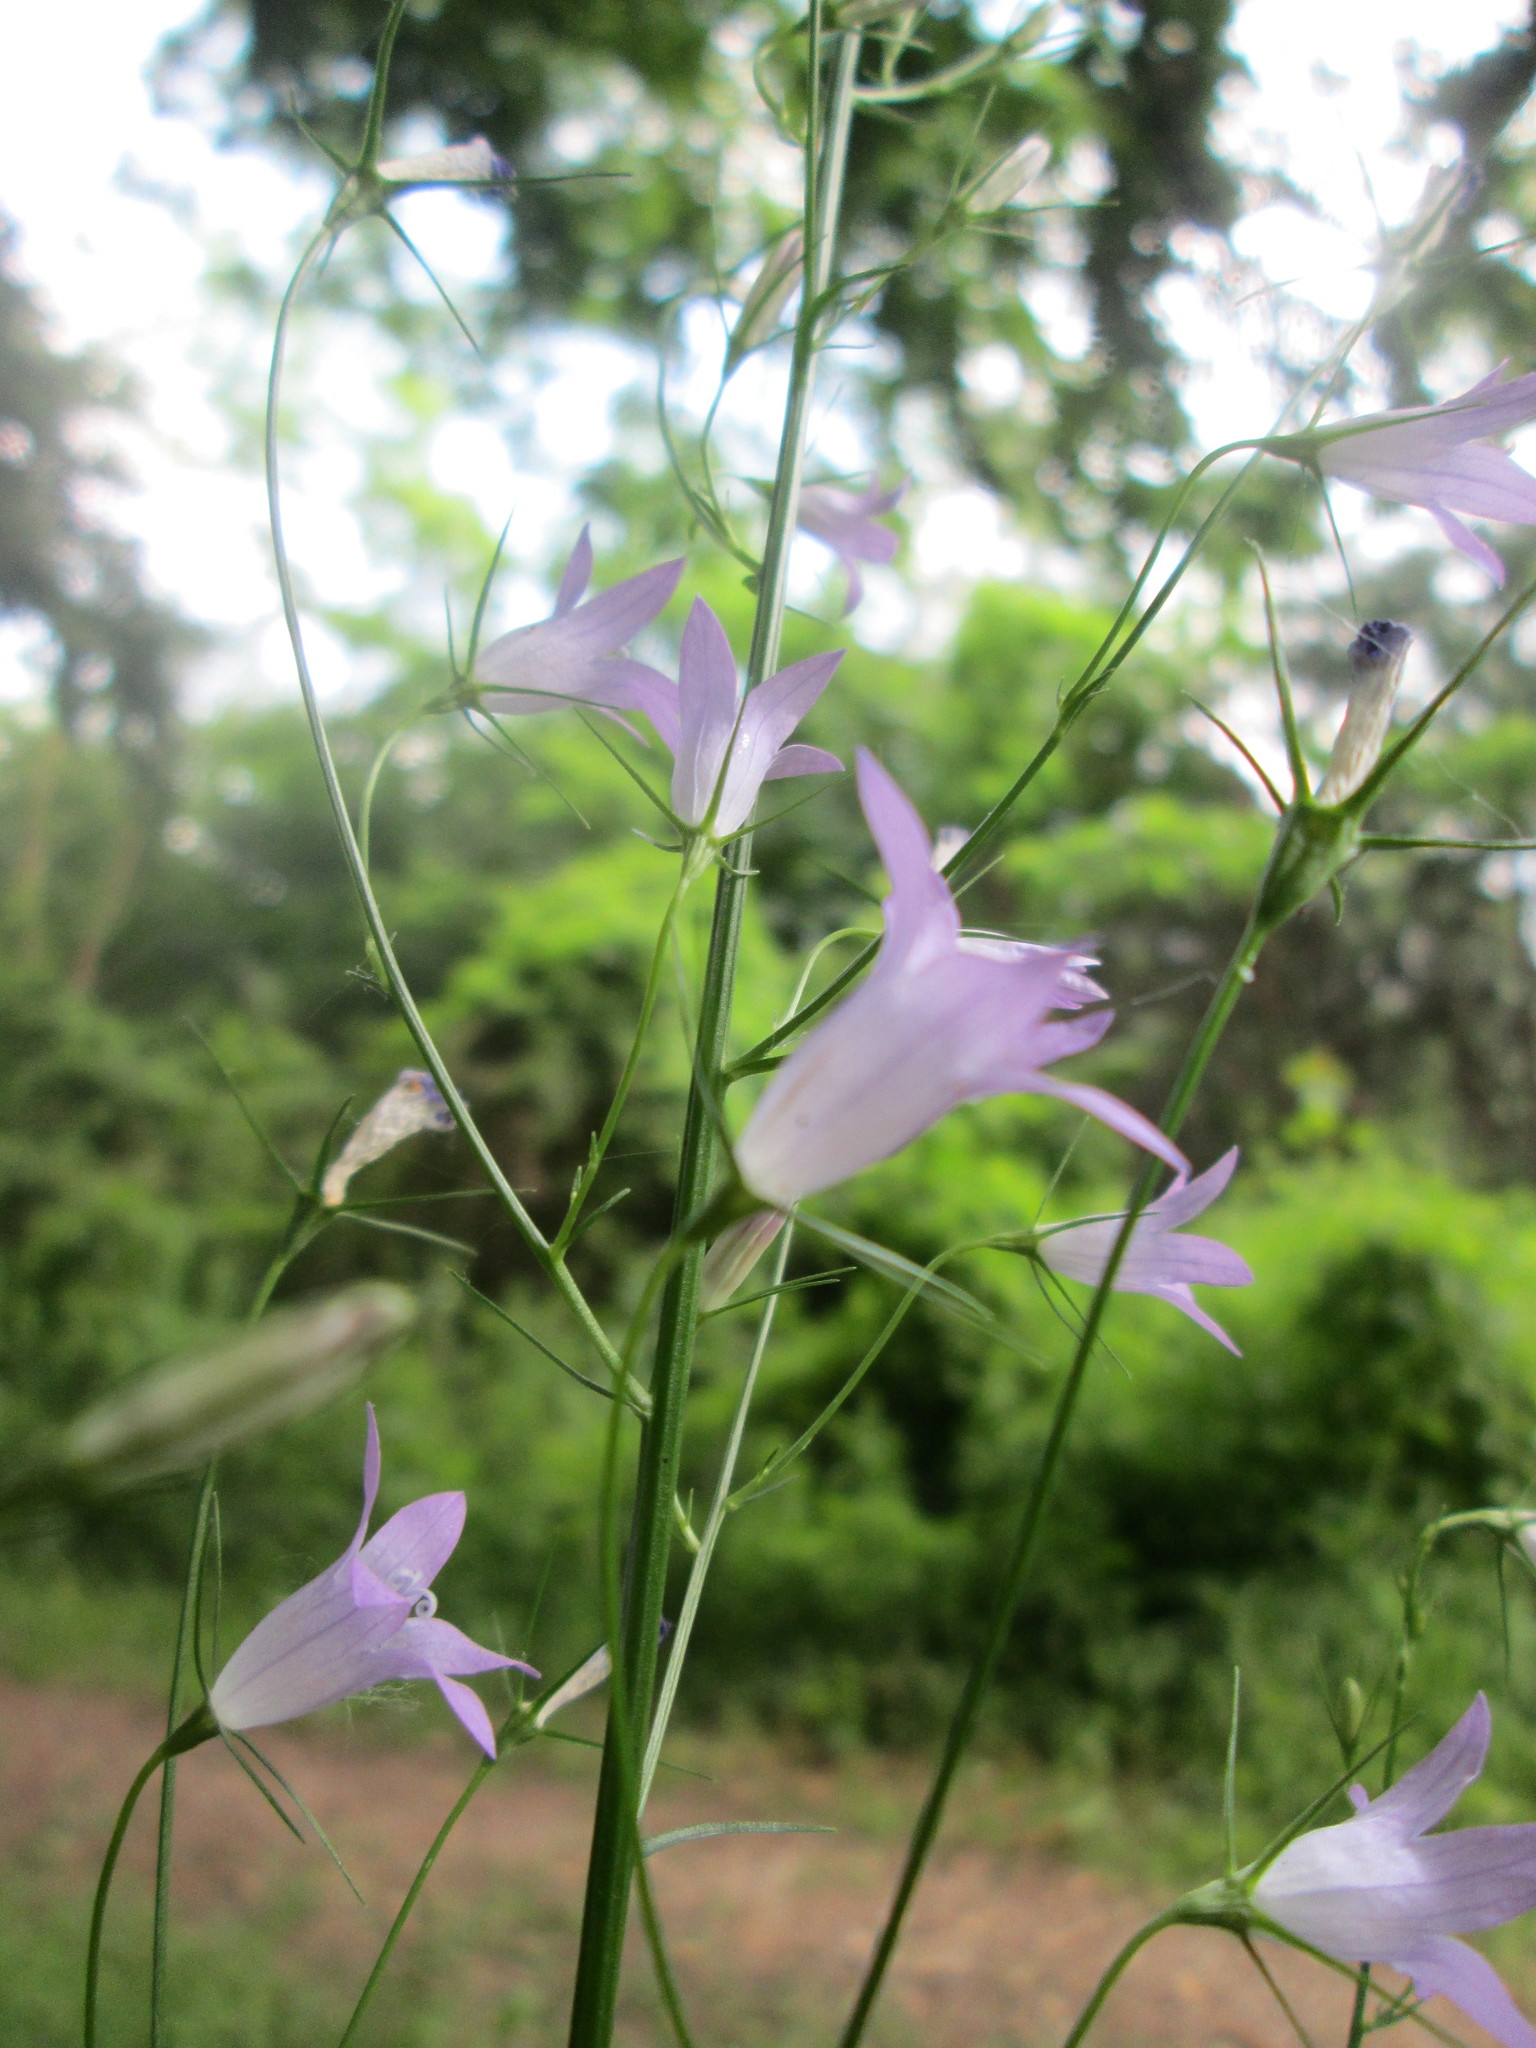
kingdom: Plantae
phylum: Tracheophyta
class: Magnoliopsida
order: Asterales
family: Campanulaceae
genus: Campanula
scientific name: Campanula rapunculus
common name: Rampion bellflower
